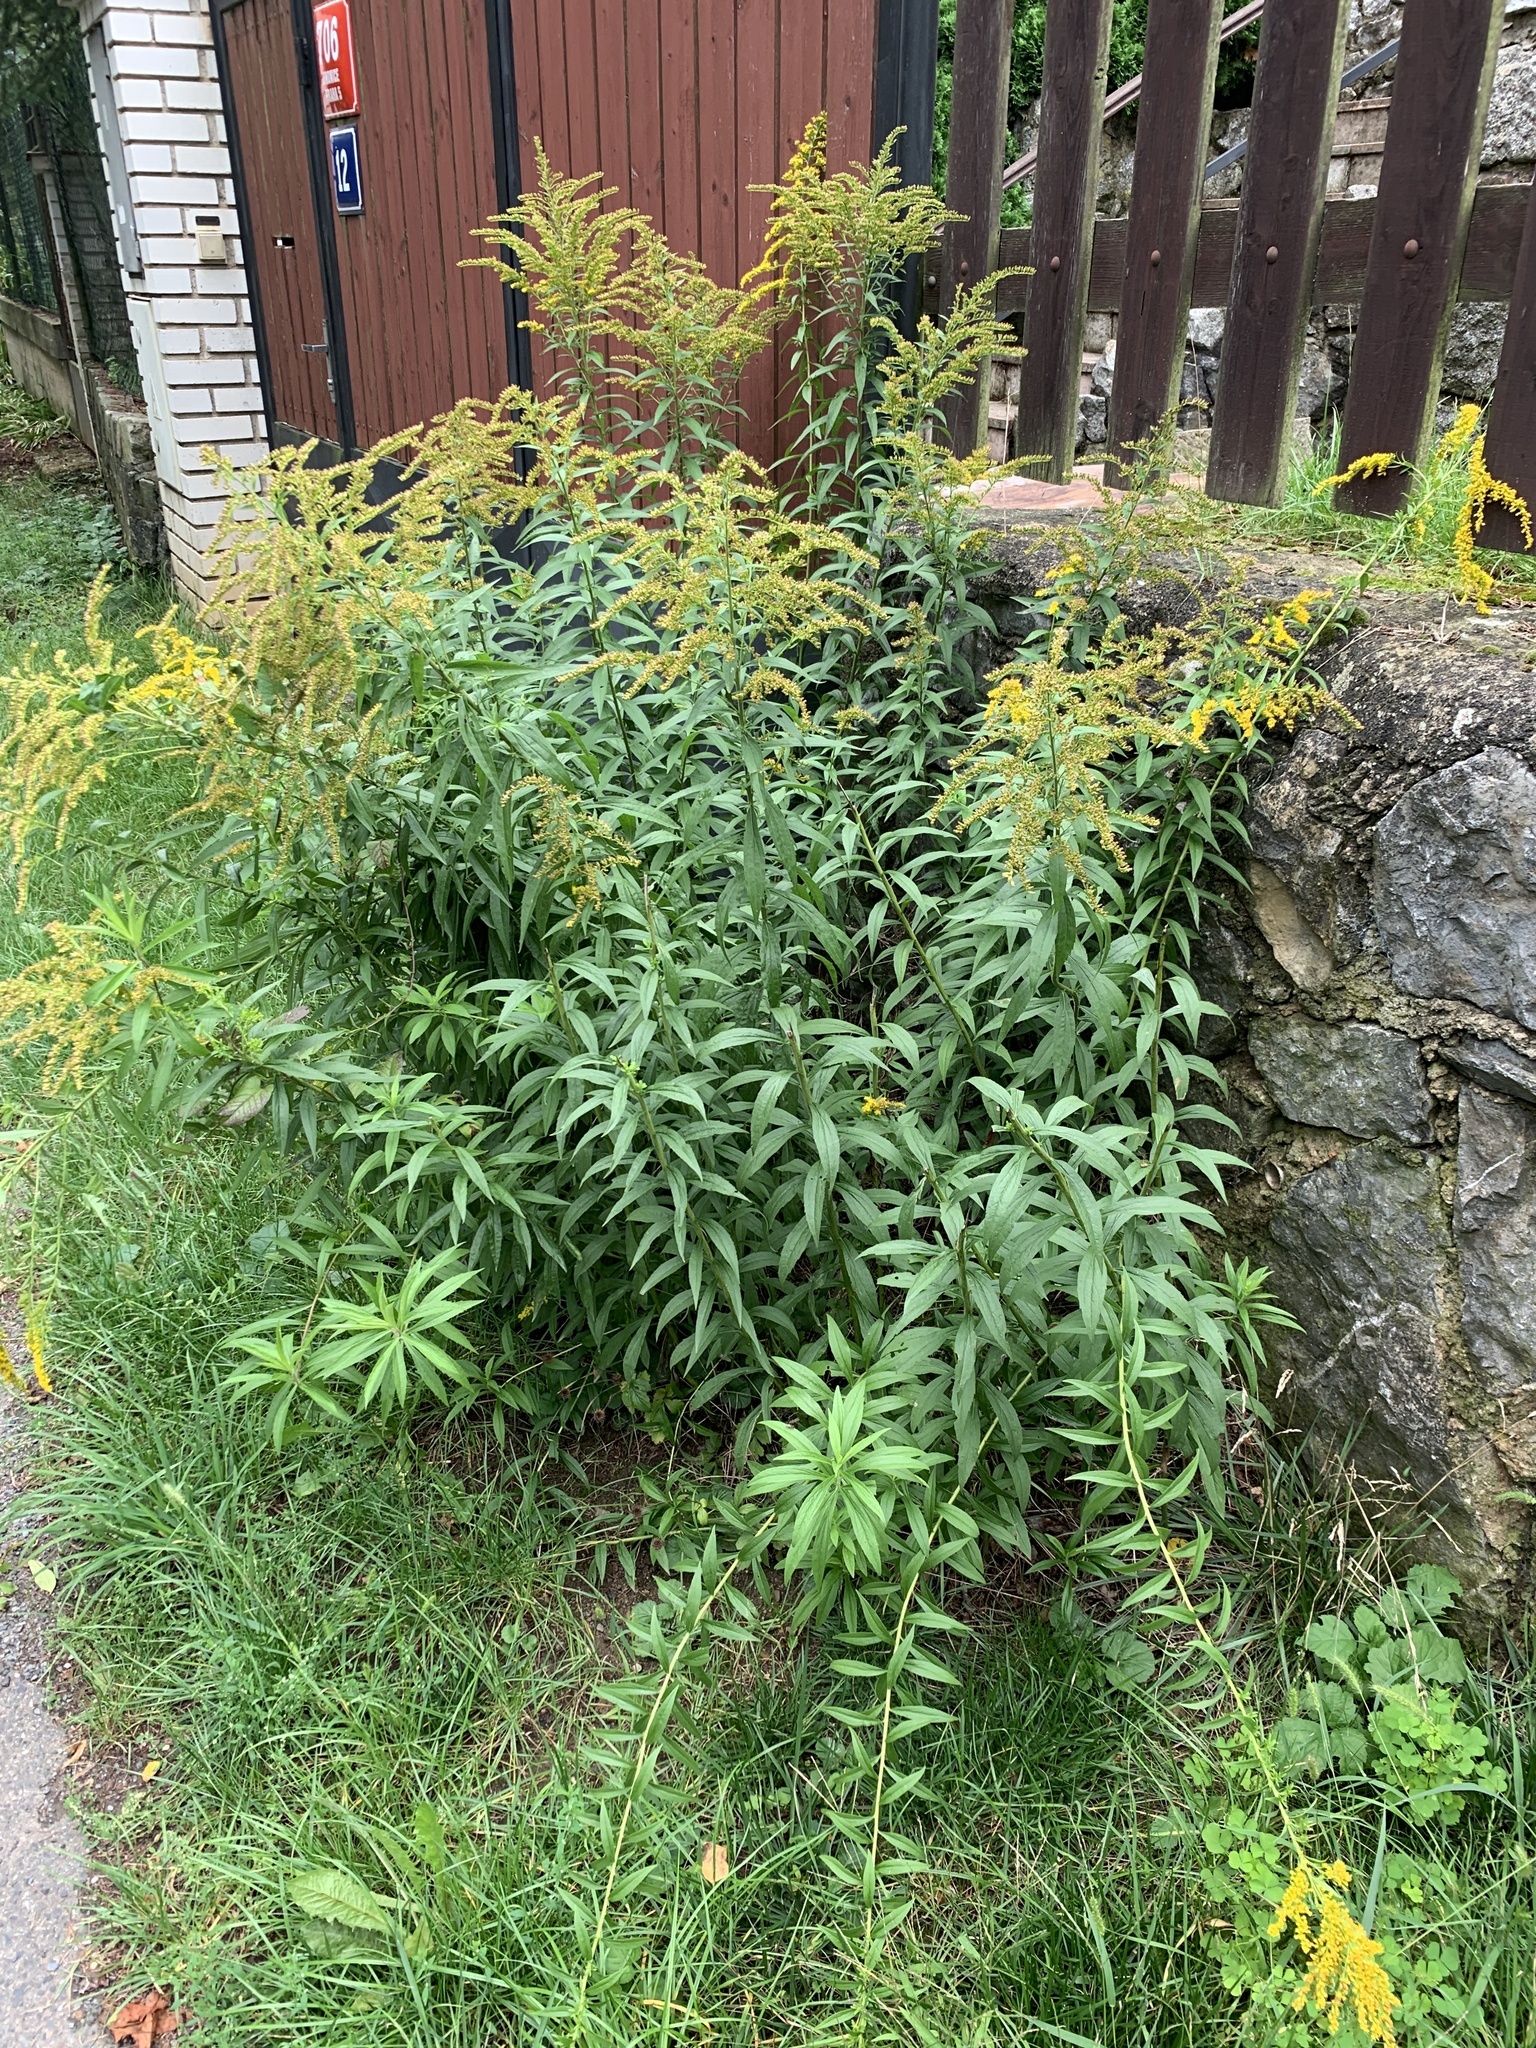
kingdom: Plantae
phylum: Tracheophyta
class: Magnoliopsida
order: Asterales
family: Asteraceae
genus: Solidago
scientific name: Solidago canadensis
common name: Canada goldenrod
